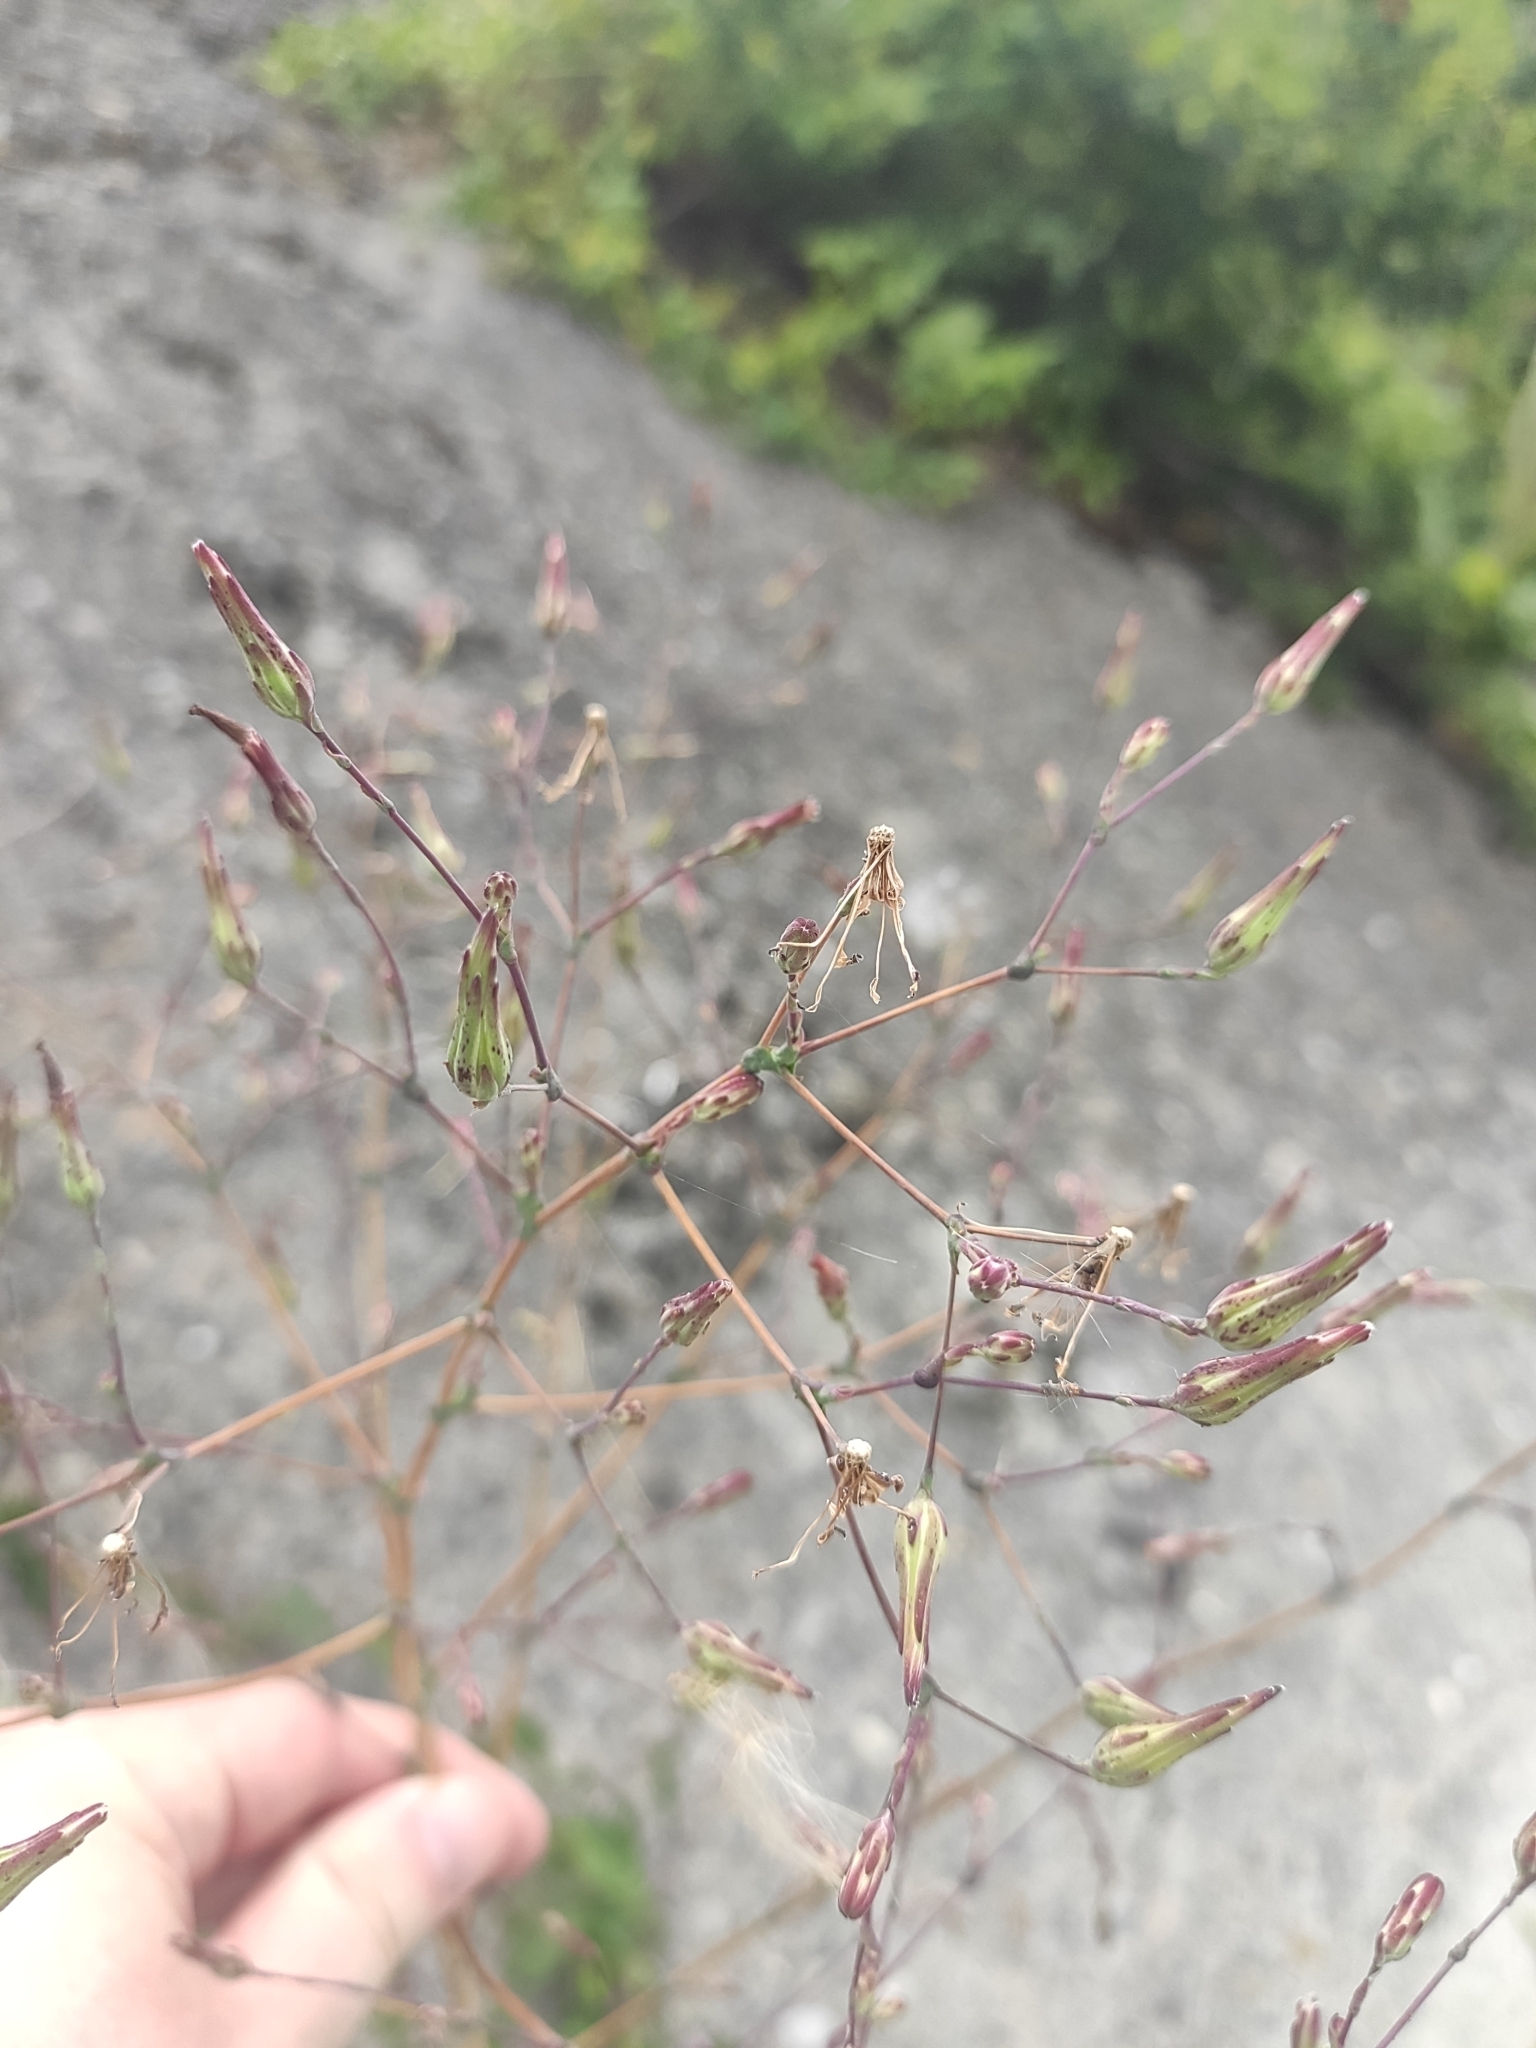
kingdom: Plantae
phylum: Tracheophyta
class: Magnoliopsida
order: Asterales
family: Asteraceae
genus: Lactuca
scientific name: Lactuca serriola
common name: Prickly lettuce
